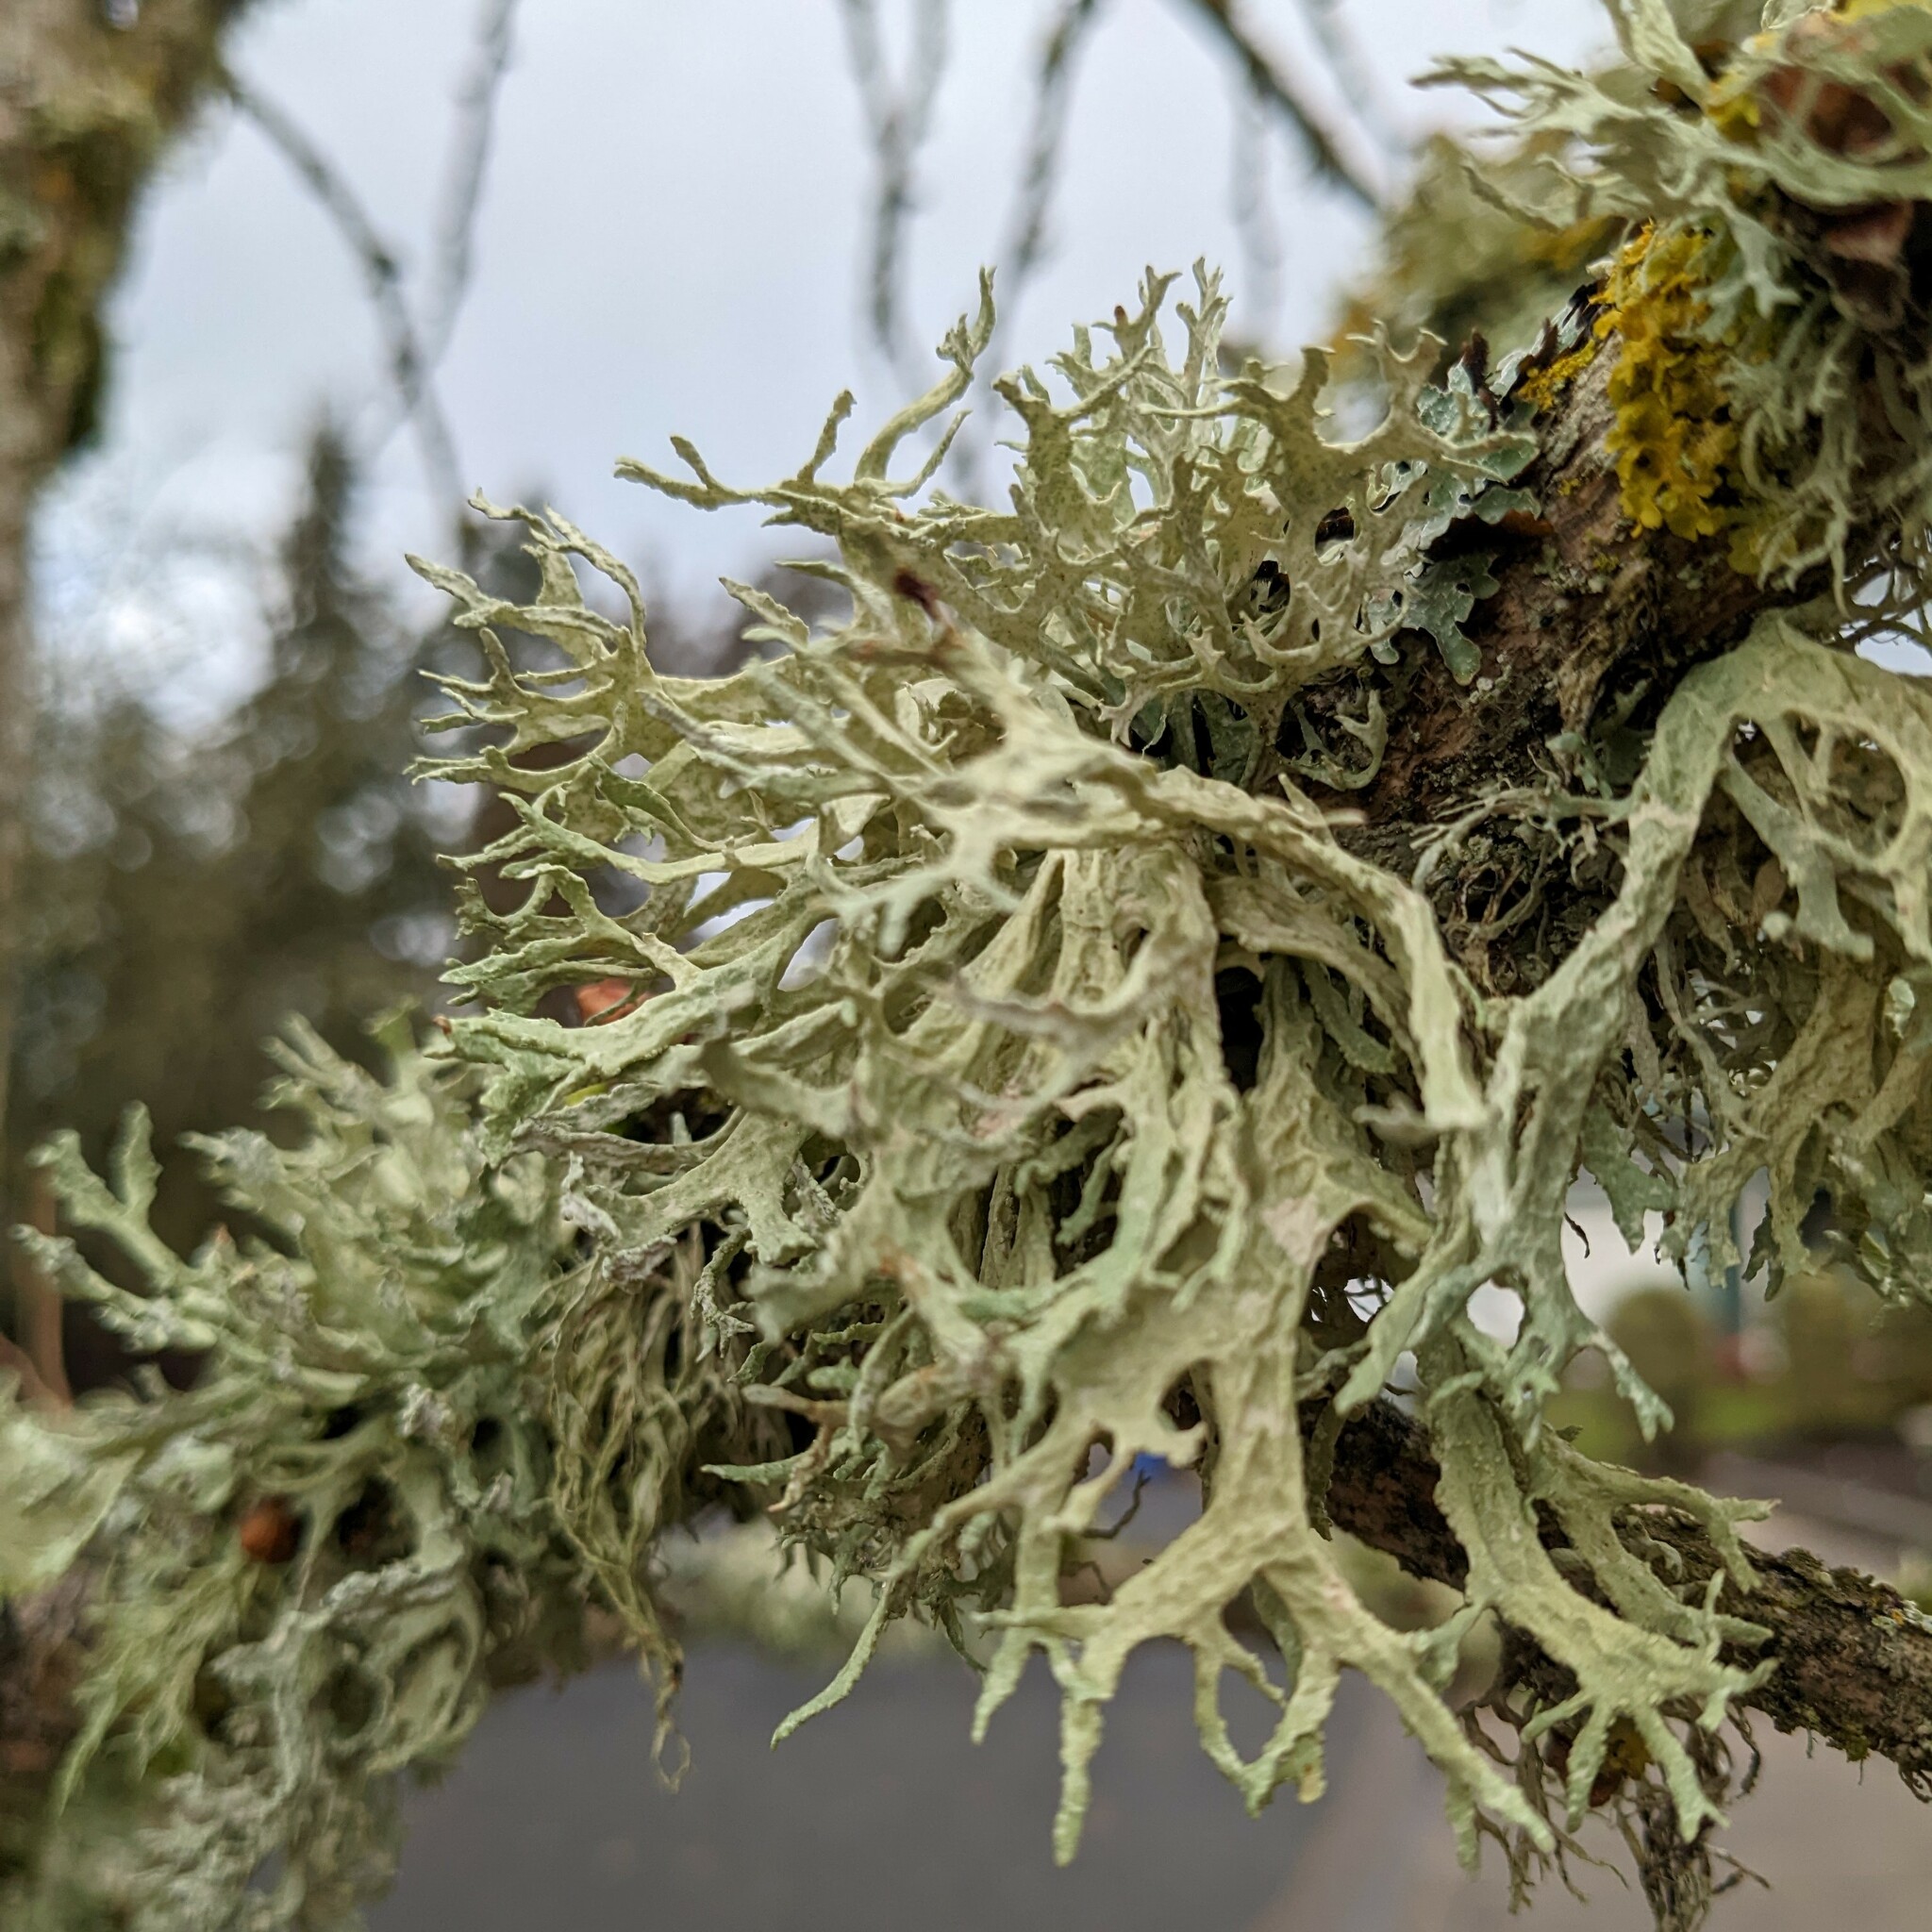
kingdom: Fungi
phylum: Ascomycota
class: Lecanoromycetes
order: Lecanorales
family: Parmeliaceae
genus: Evernia
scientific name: Evernia prunastri
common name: Oak moss
